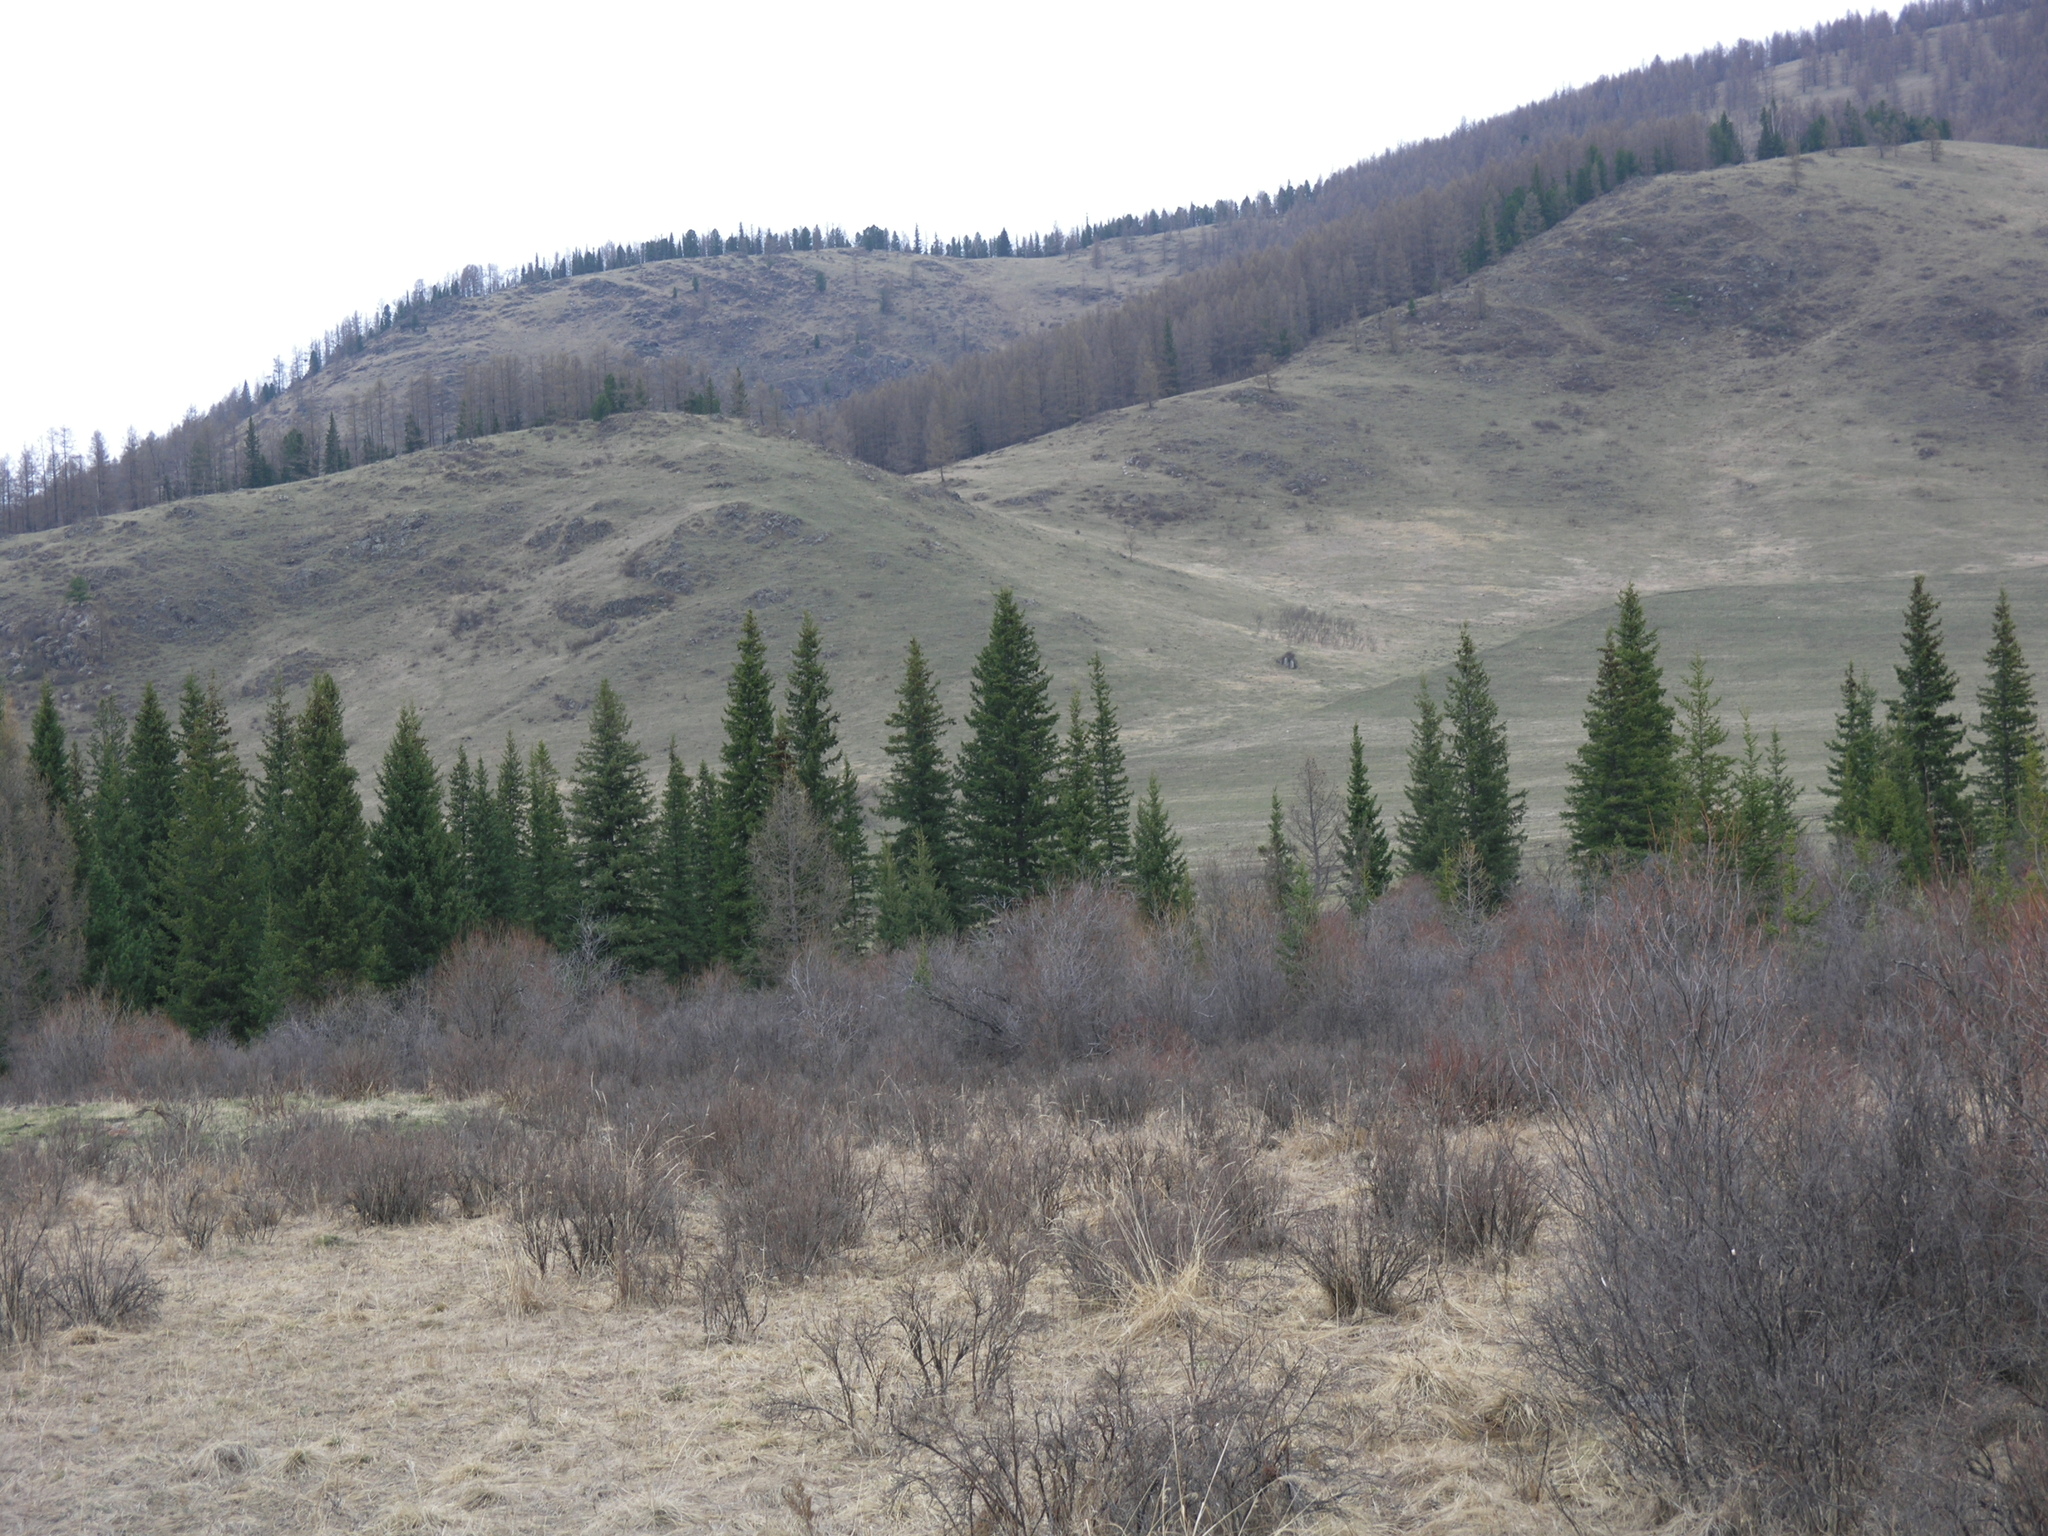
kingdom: Plantae
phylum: Tracheophyta
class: Pinopsida
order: Pinales
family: Pinaceae
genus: Picea
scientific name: Picea obovata
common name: Siberian spruce
